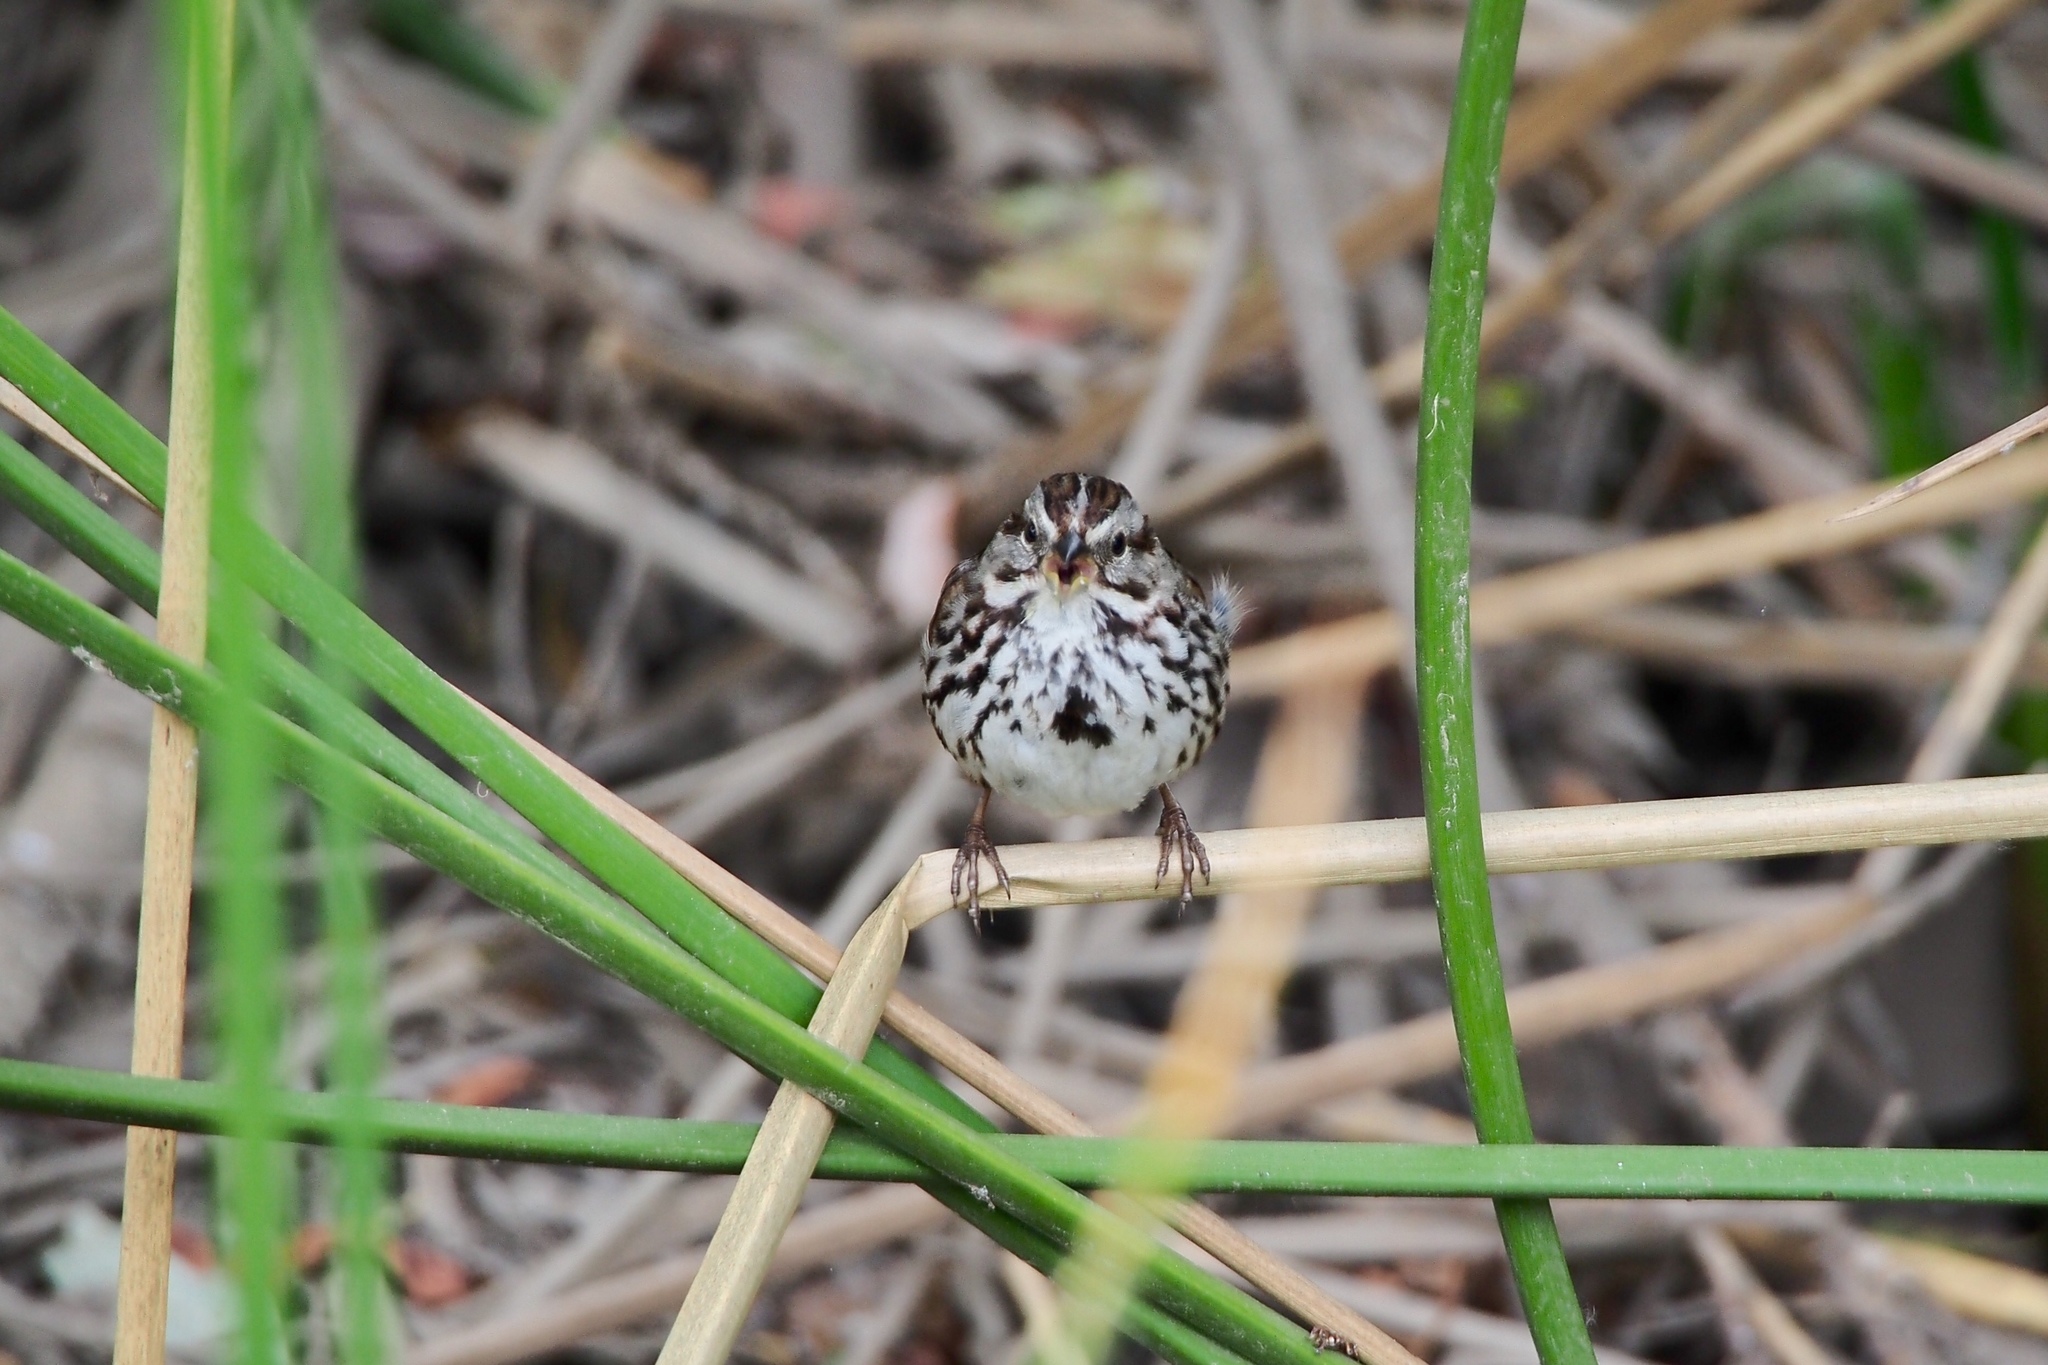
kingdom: Animalia
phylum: Chordata
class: Aves
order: Passeriformes
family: Passerellidae
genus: Melospiza
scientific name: Melospiza melodia
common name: Song sparrow
